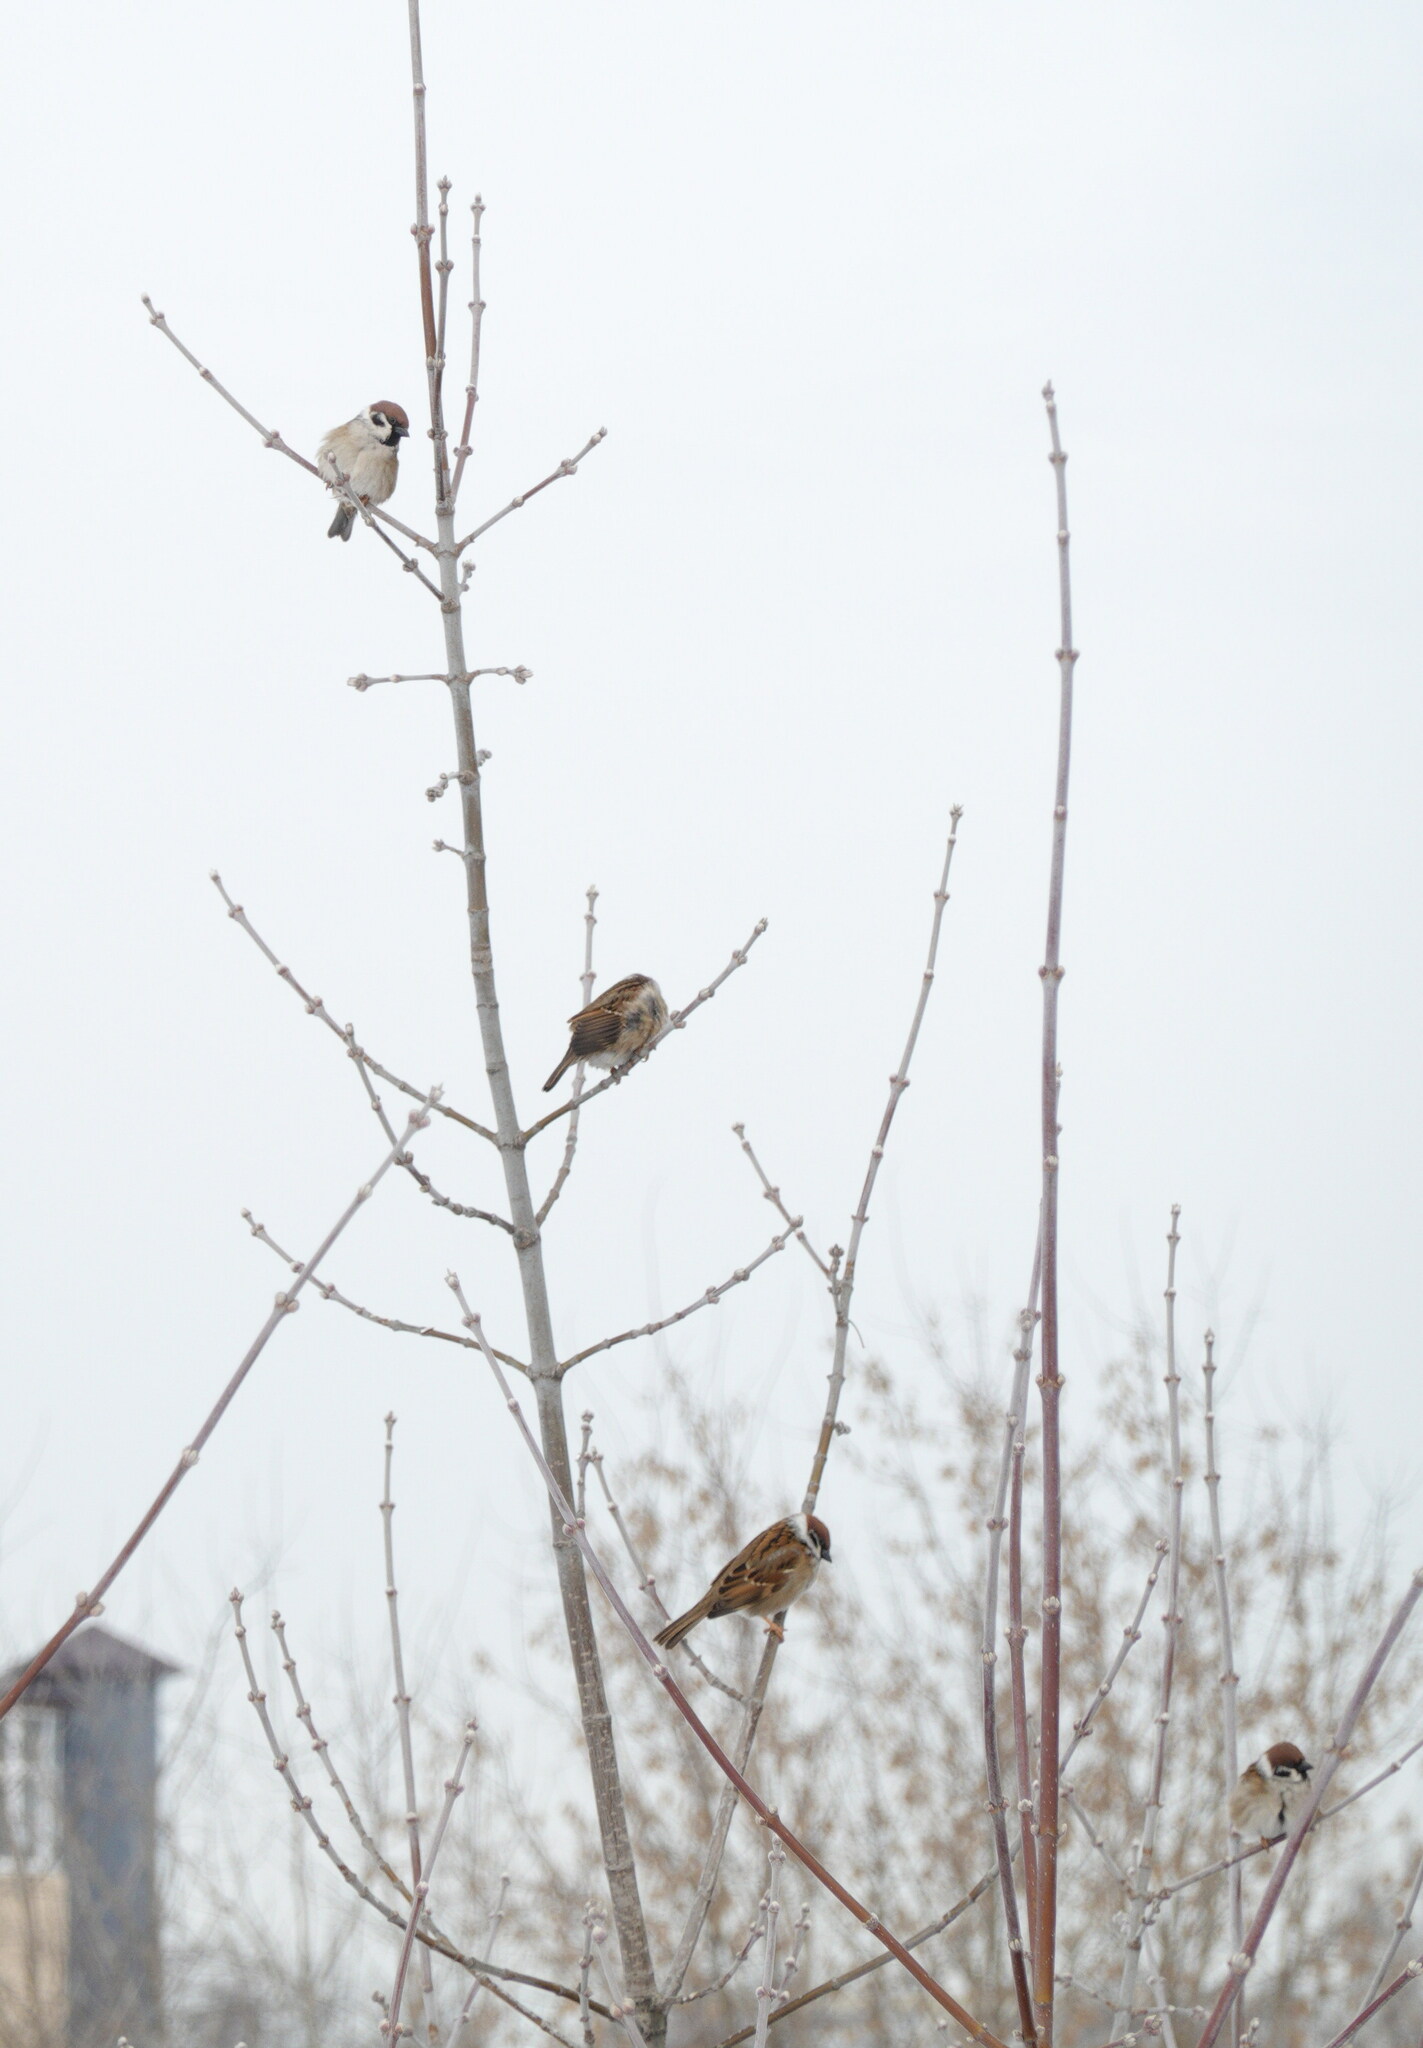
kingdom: Animalia
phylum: Chordata
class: Aves
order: Passeriformes
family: Passeridae
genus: Passer
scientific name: Passer montanus
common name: Eurasian tree sparrow
